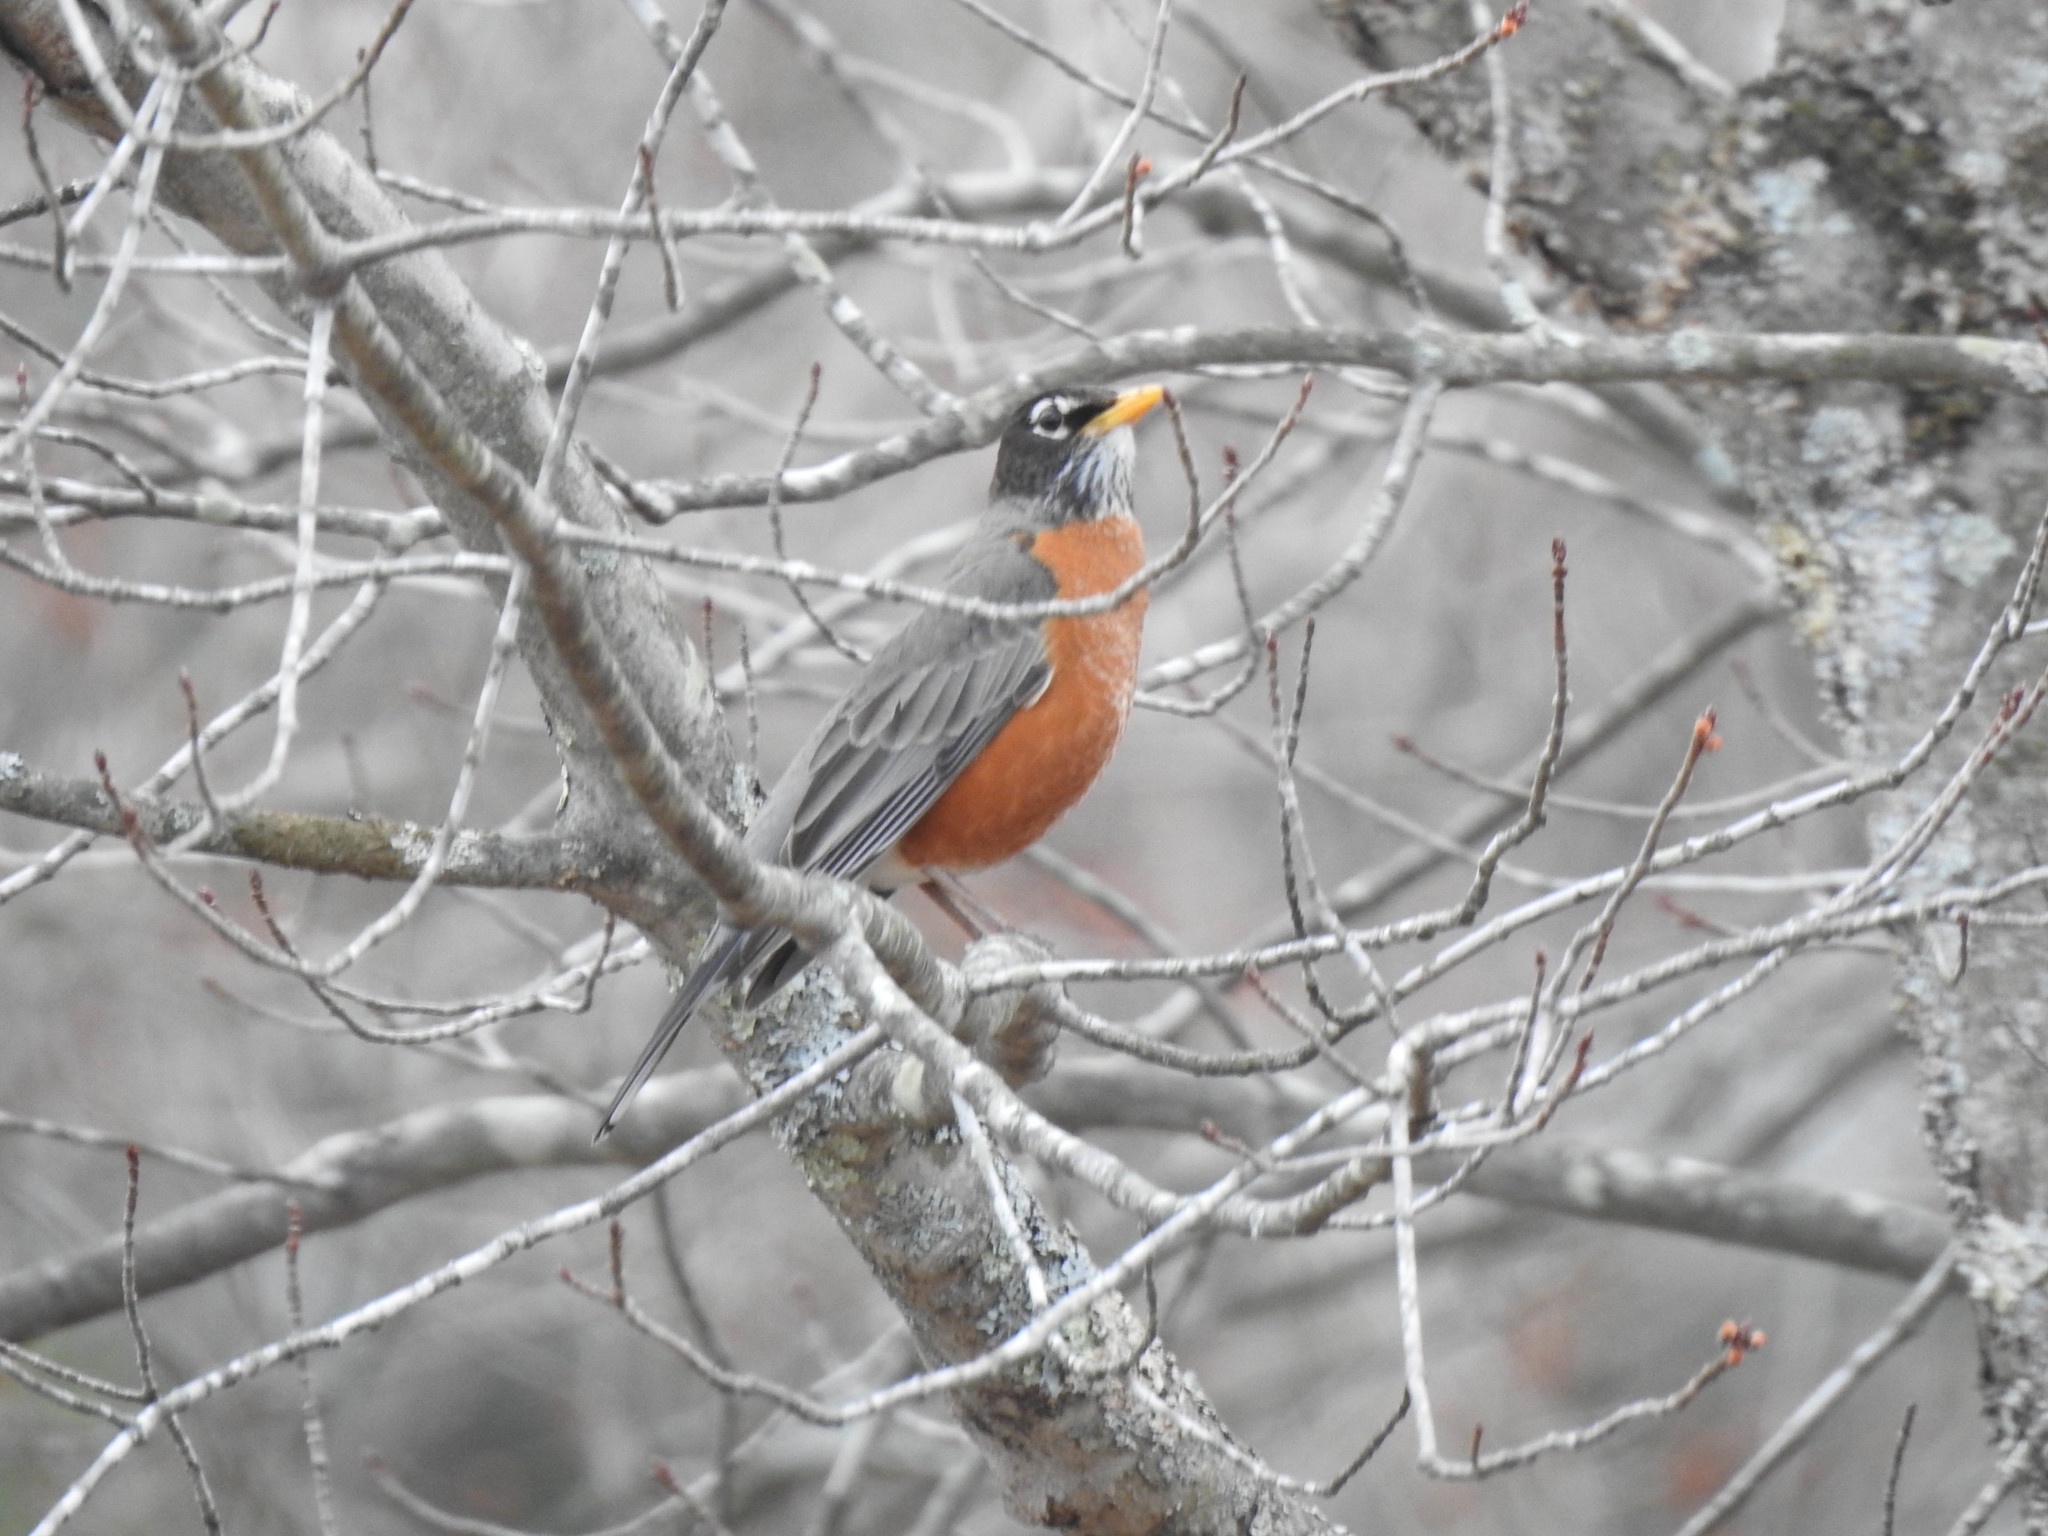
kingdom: Animalia
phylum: Chordata
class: Aves
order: Passeriformes
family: Turdidae
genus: Turdus
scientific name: Turdus migratorius
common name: American robin
